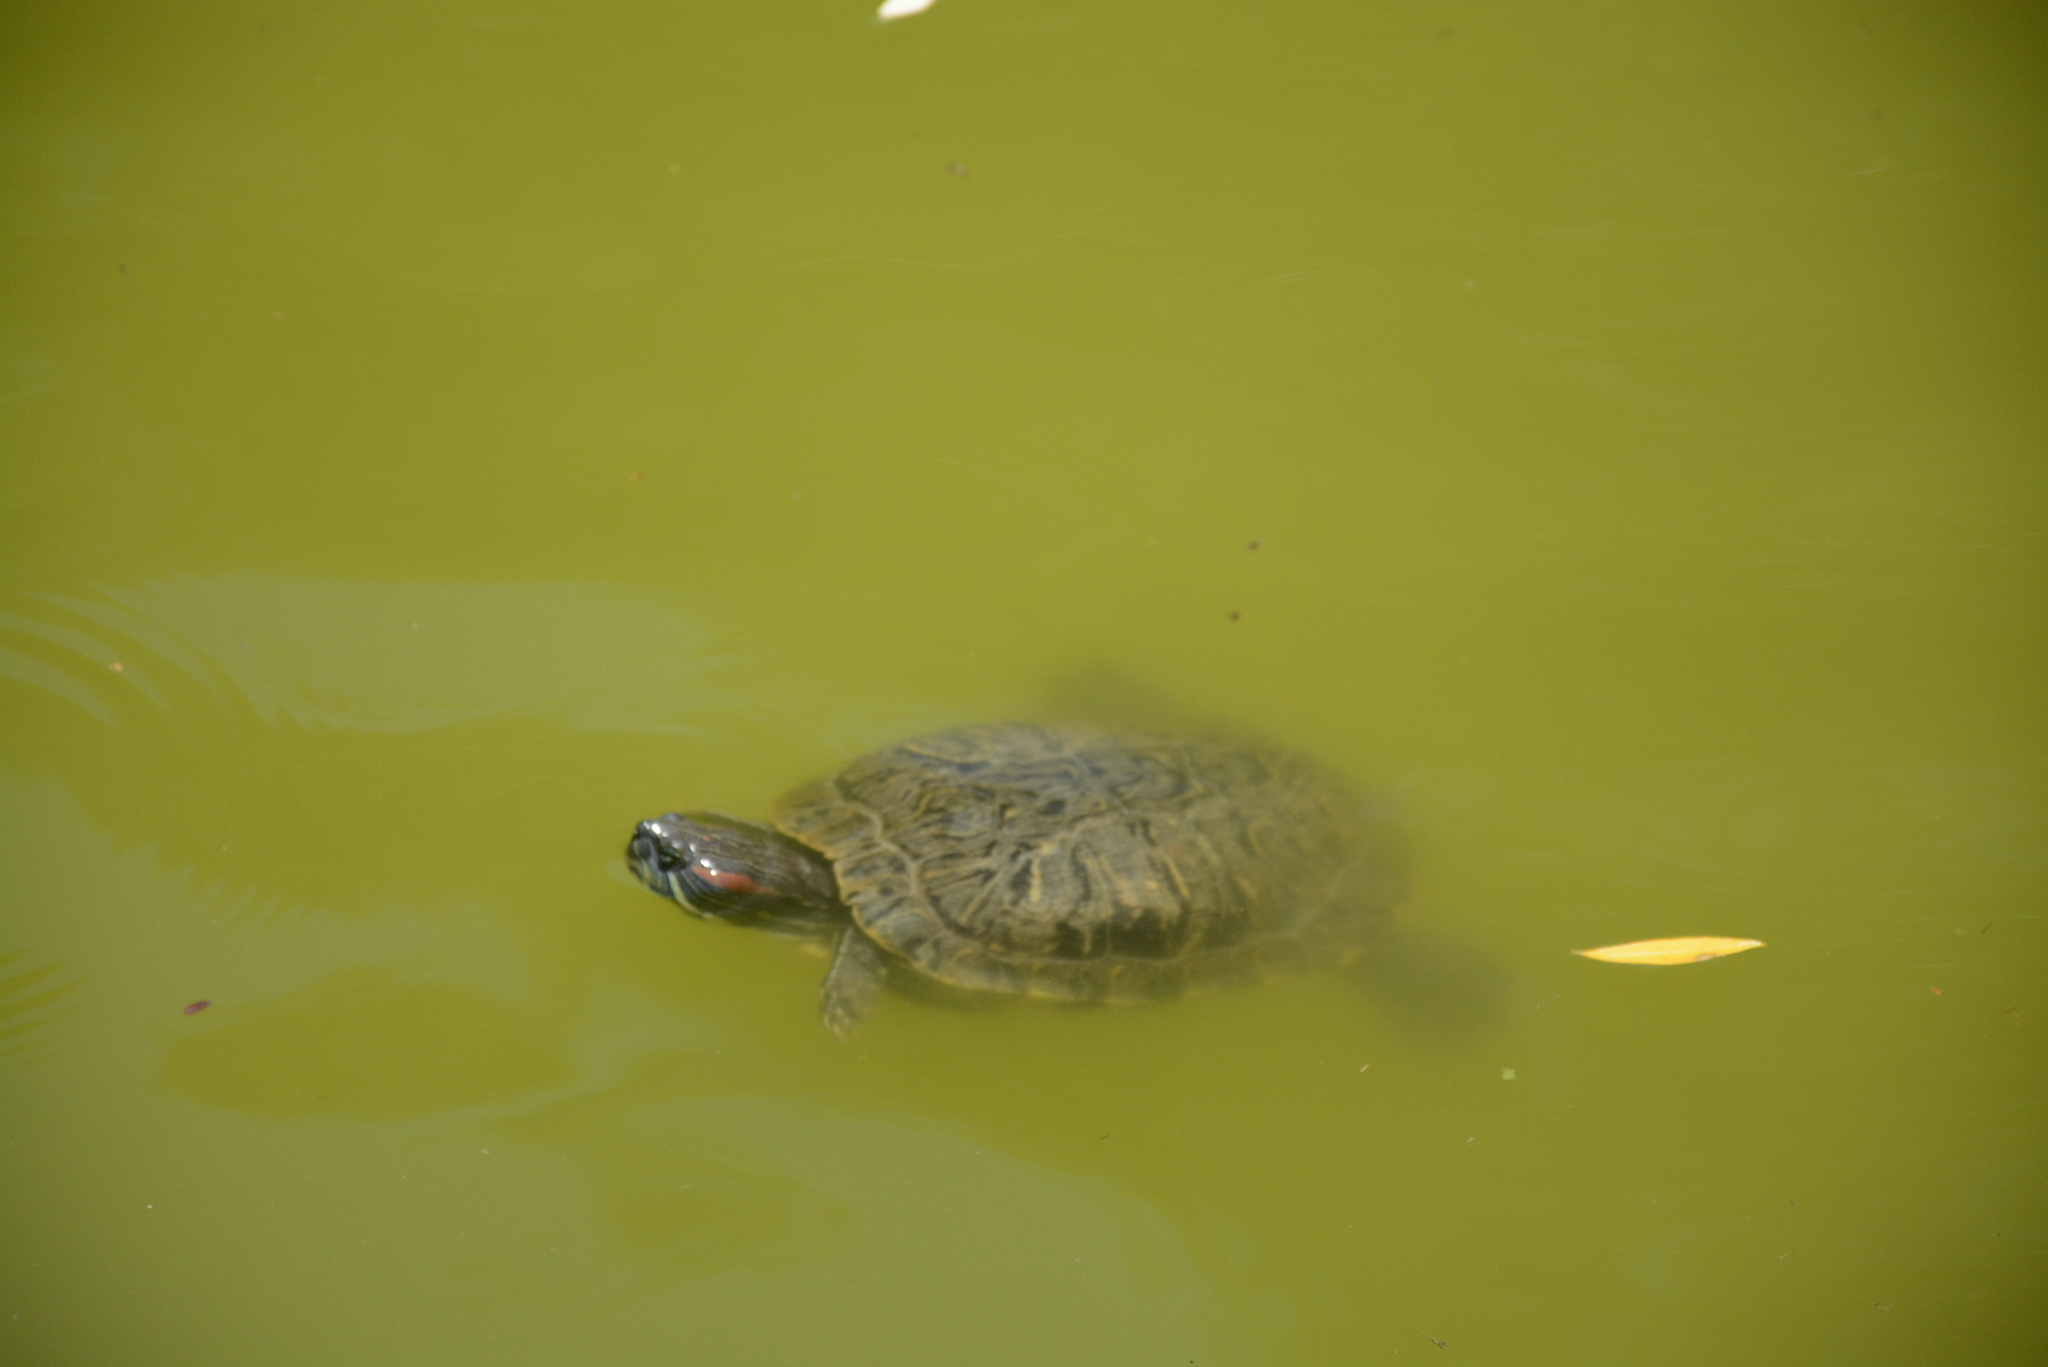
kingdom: Animalia
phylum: Chordata
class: Testudines
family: Emydidae
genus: Trachemys
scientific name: Trachemys scripta
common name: Slider
